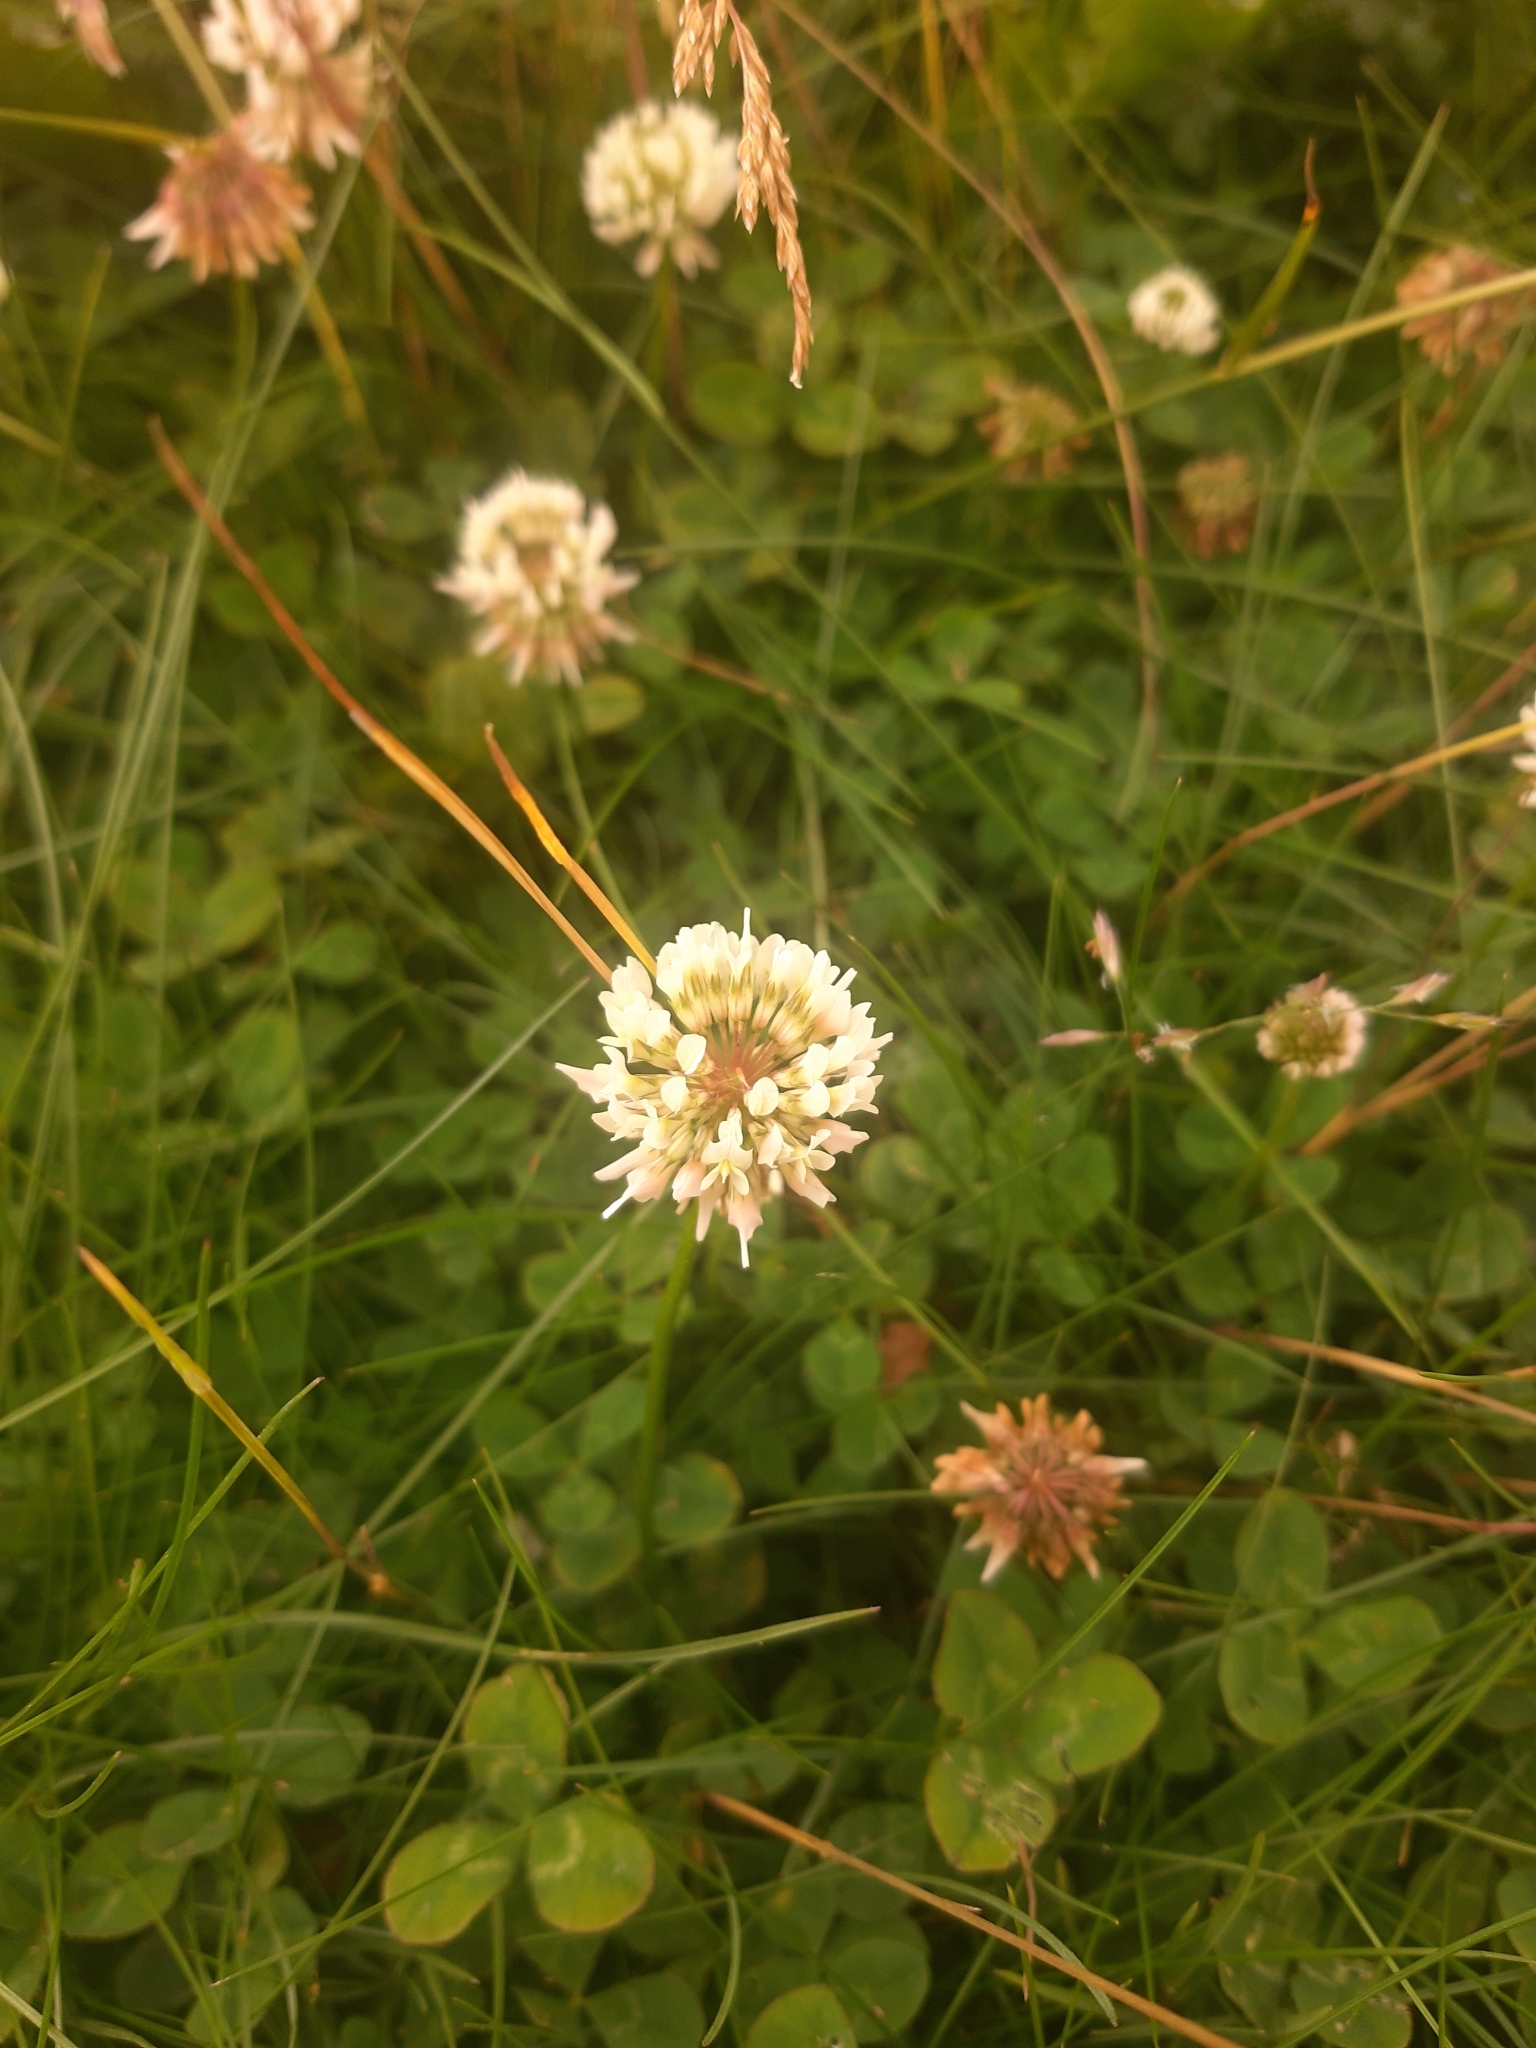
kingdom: Plantae
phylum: Tracheophyta
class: Magnoliopsida
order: Fabales
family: Fabaceae
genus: Trifolium
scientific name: Trifolium repens
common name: White clover
